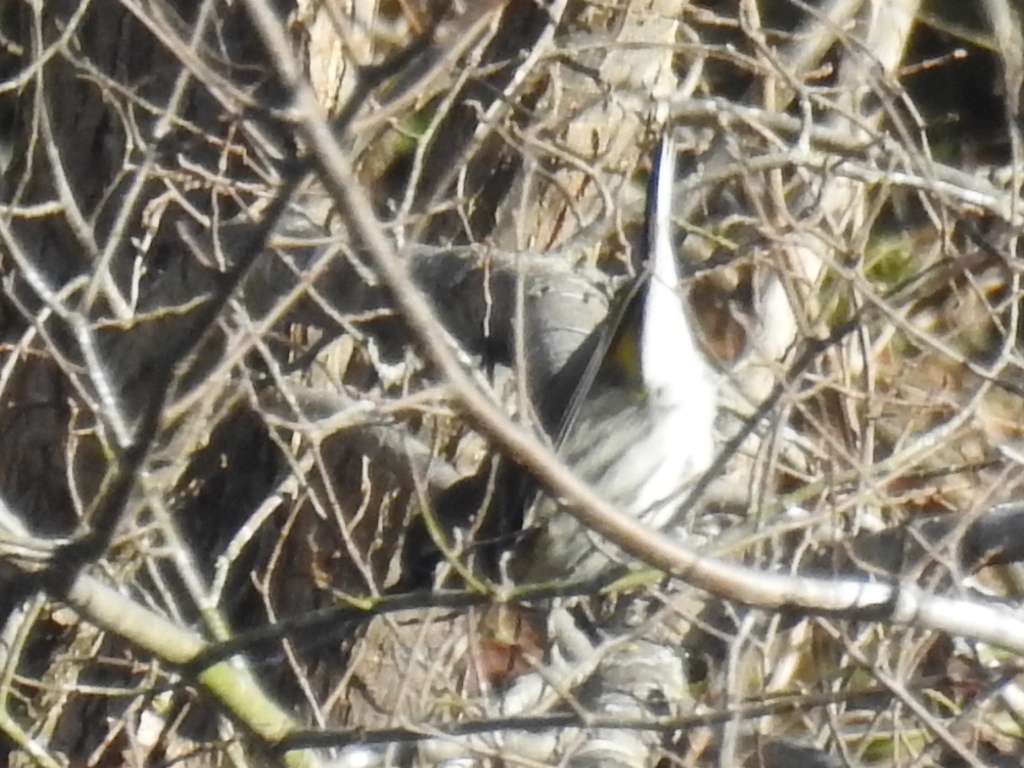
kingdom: Animalia
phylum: Chordata
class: Aves
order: Passeriformes
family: Parulidae
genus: Setophaga
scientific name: Setophaga coronata
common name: Myrtle warbler
